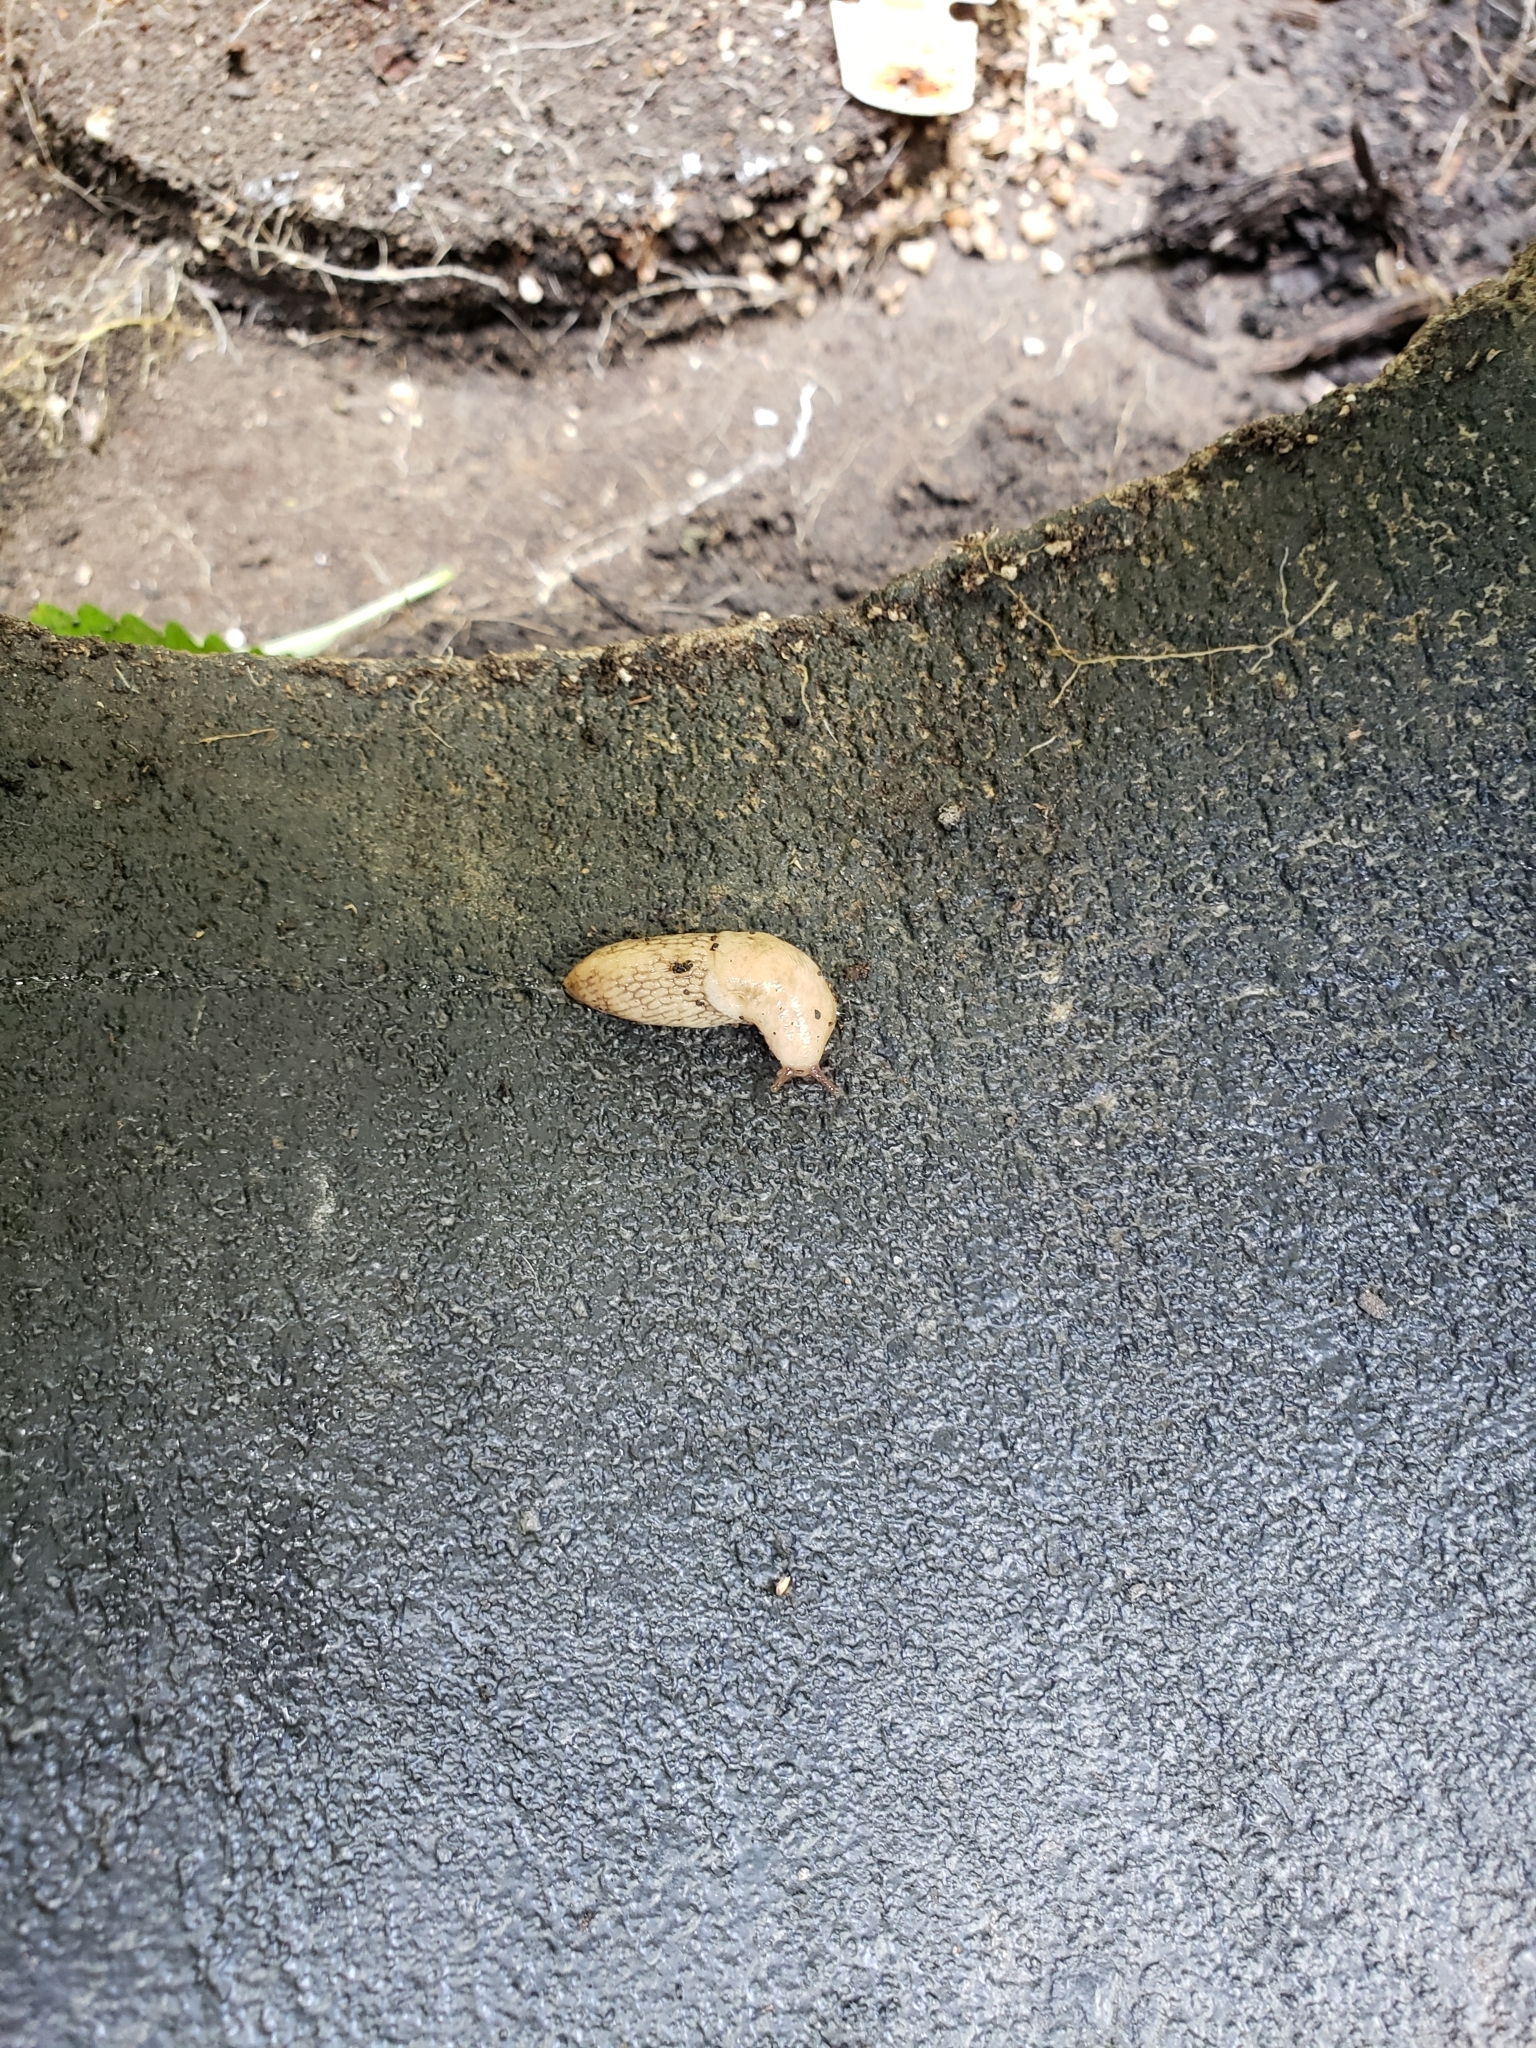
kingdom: Animalia
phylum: Mollusca
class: Gastropoda
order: Stylommatophora
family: Agriolimacidae
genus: Deroceras
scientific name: Deroceras reticulatum
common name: Gray field slug
